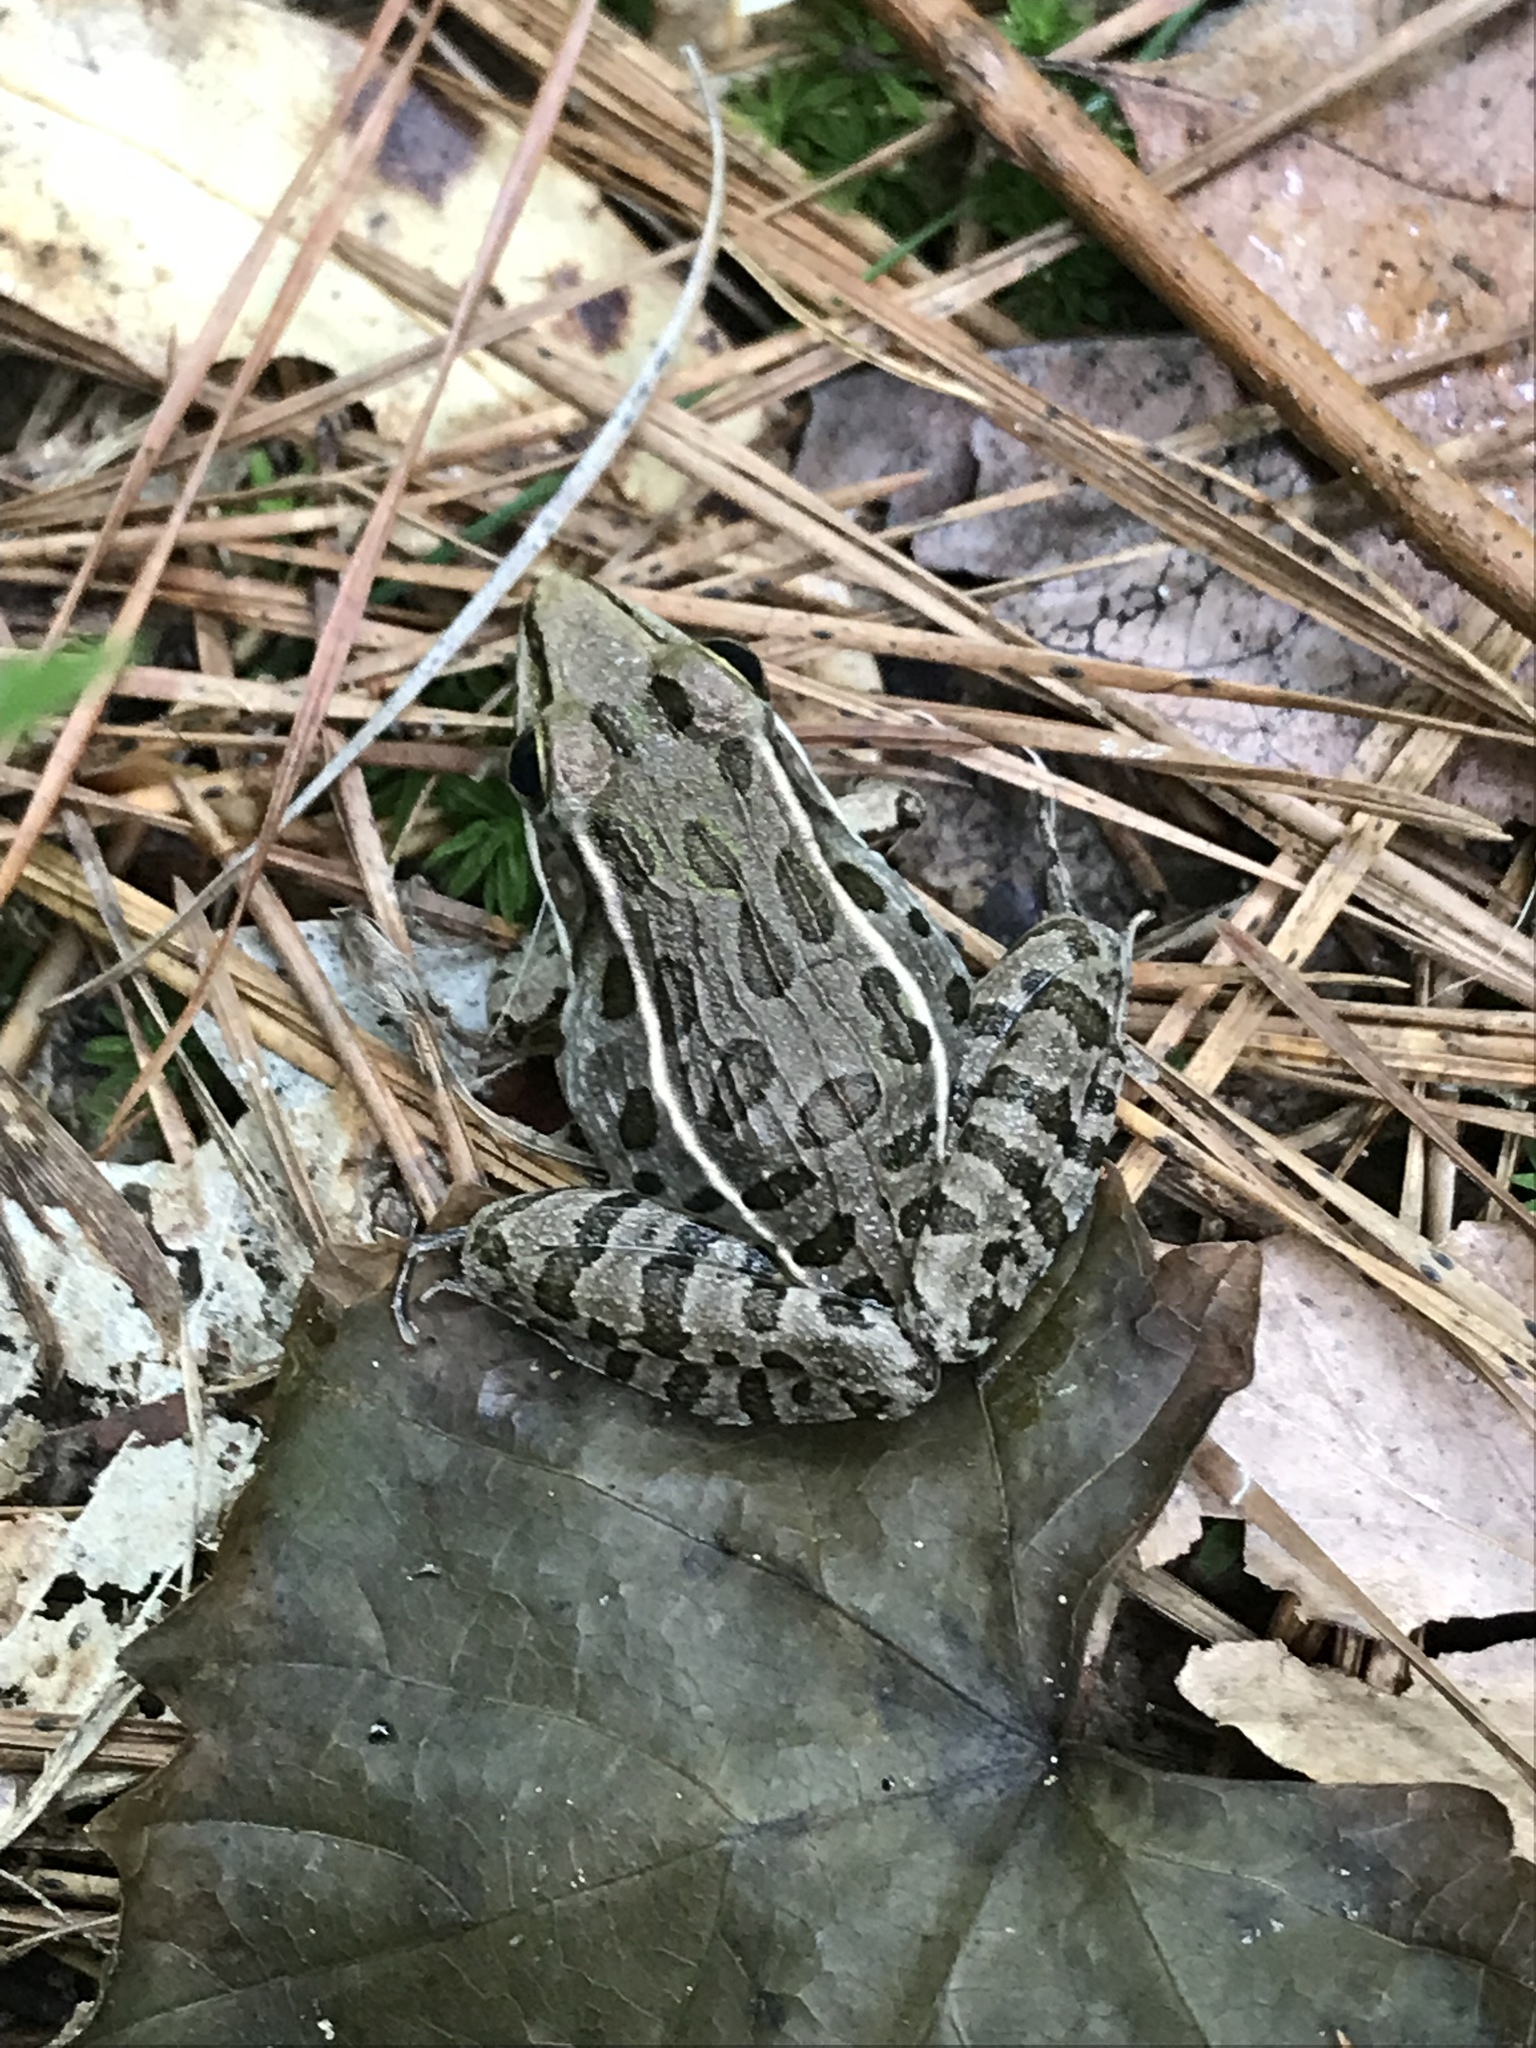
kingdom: Animalia
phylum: Chordata
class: Amphibia
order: Anura
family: Ranidae
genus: Lithobates
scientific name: Lithobates sphenocephalus
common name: Southern leopard frog
